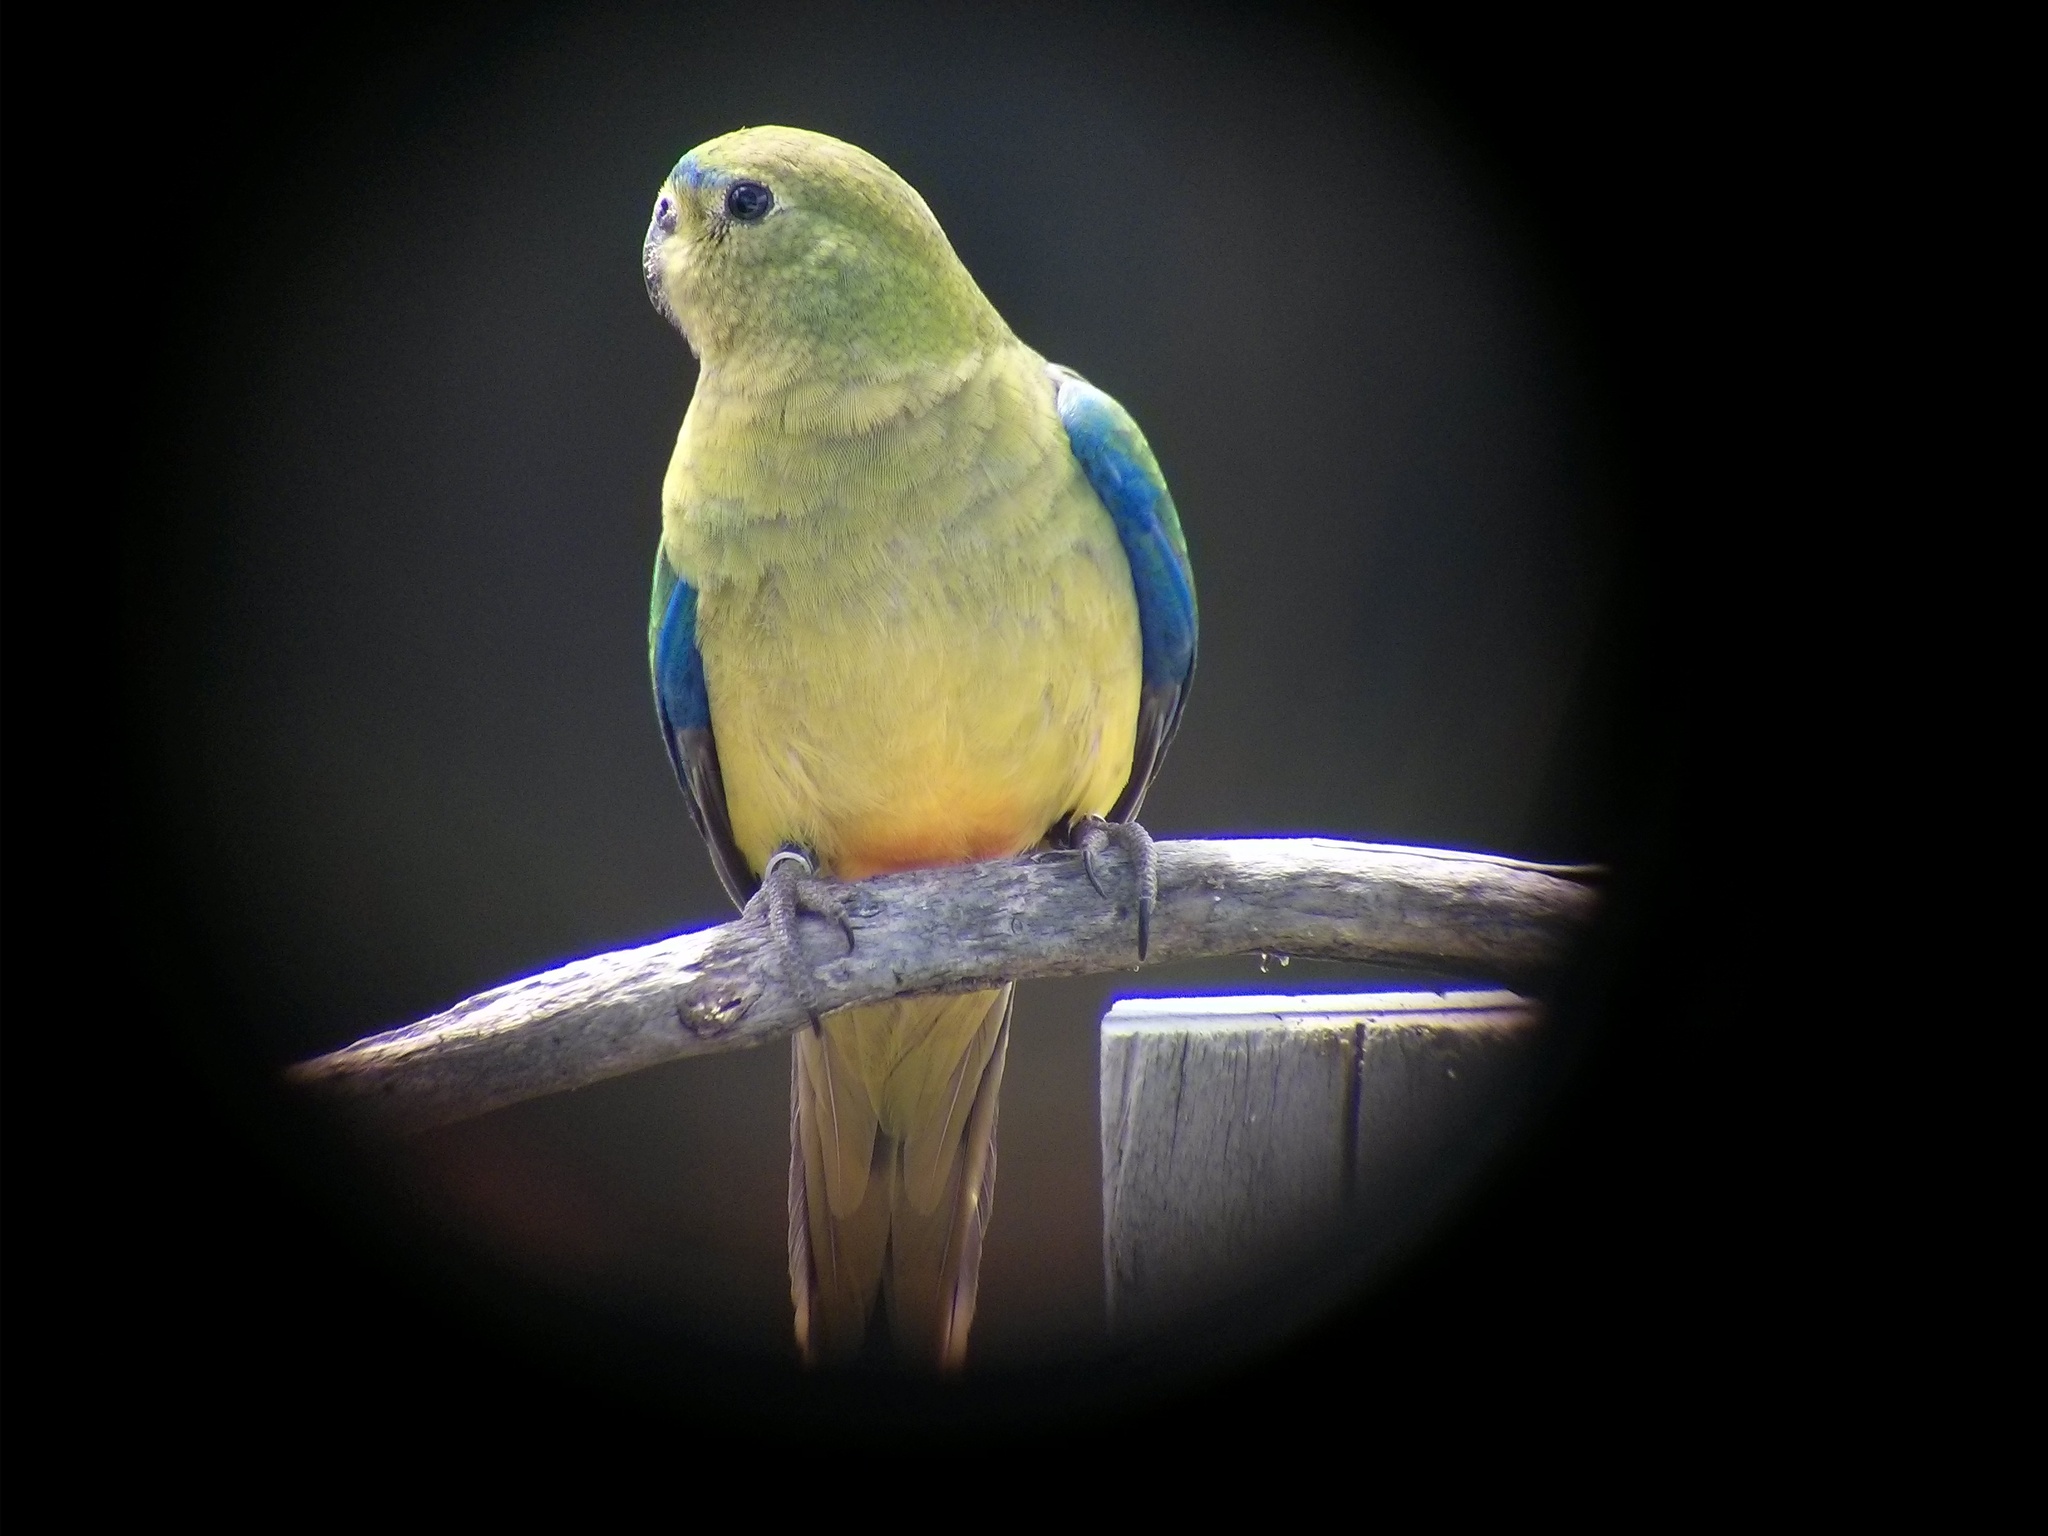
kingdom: Animalia
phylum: Chordata
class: Aves
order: Psittaciformes
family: Psittacidae
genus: Neophema
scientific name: Neophema chrysogaster
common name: Orange-bellied parrot
